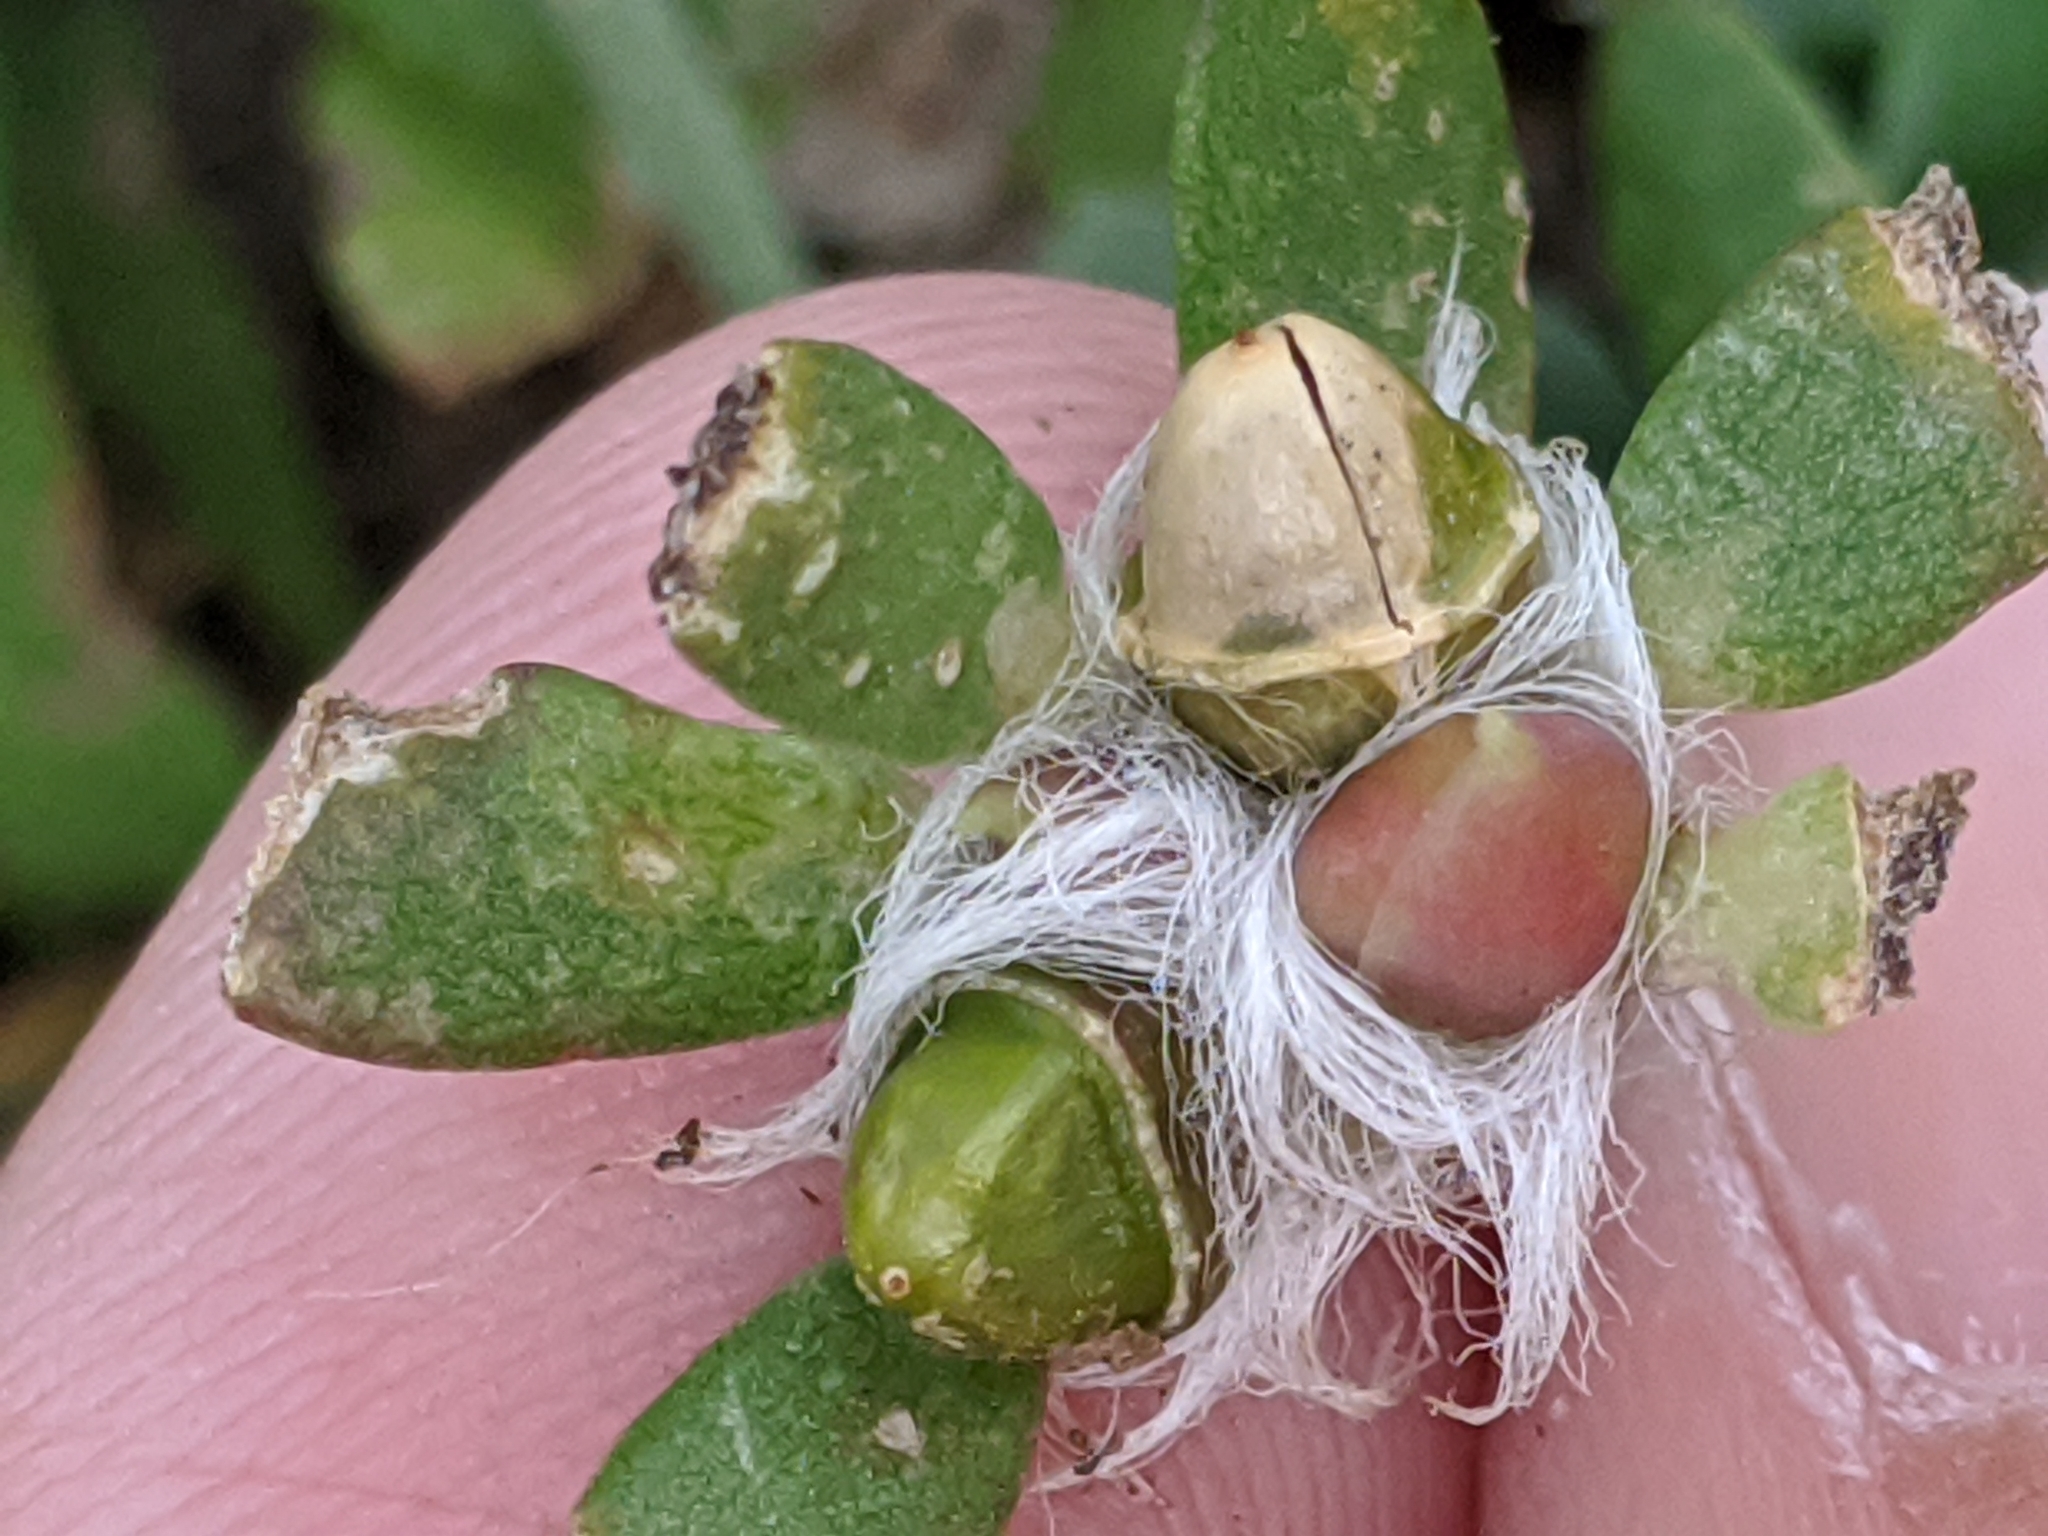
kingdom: Plantae
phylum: Tracheophyta
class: Magnoliopsida
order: Caryophyllales
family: Portulacaceae
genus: Portulaca
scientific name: Portulaca amilis
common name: Paraguayan purslane
